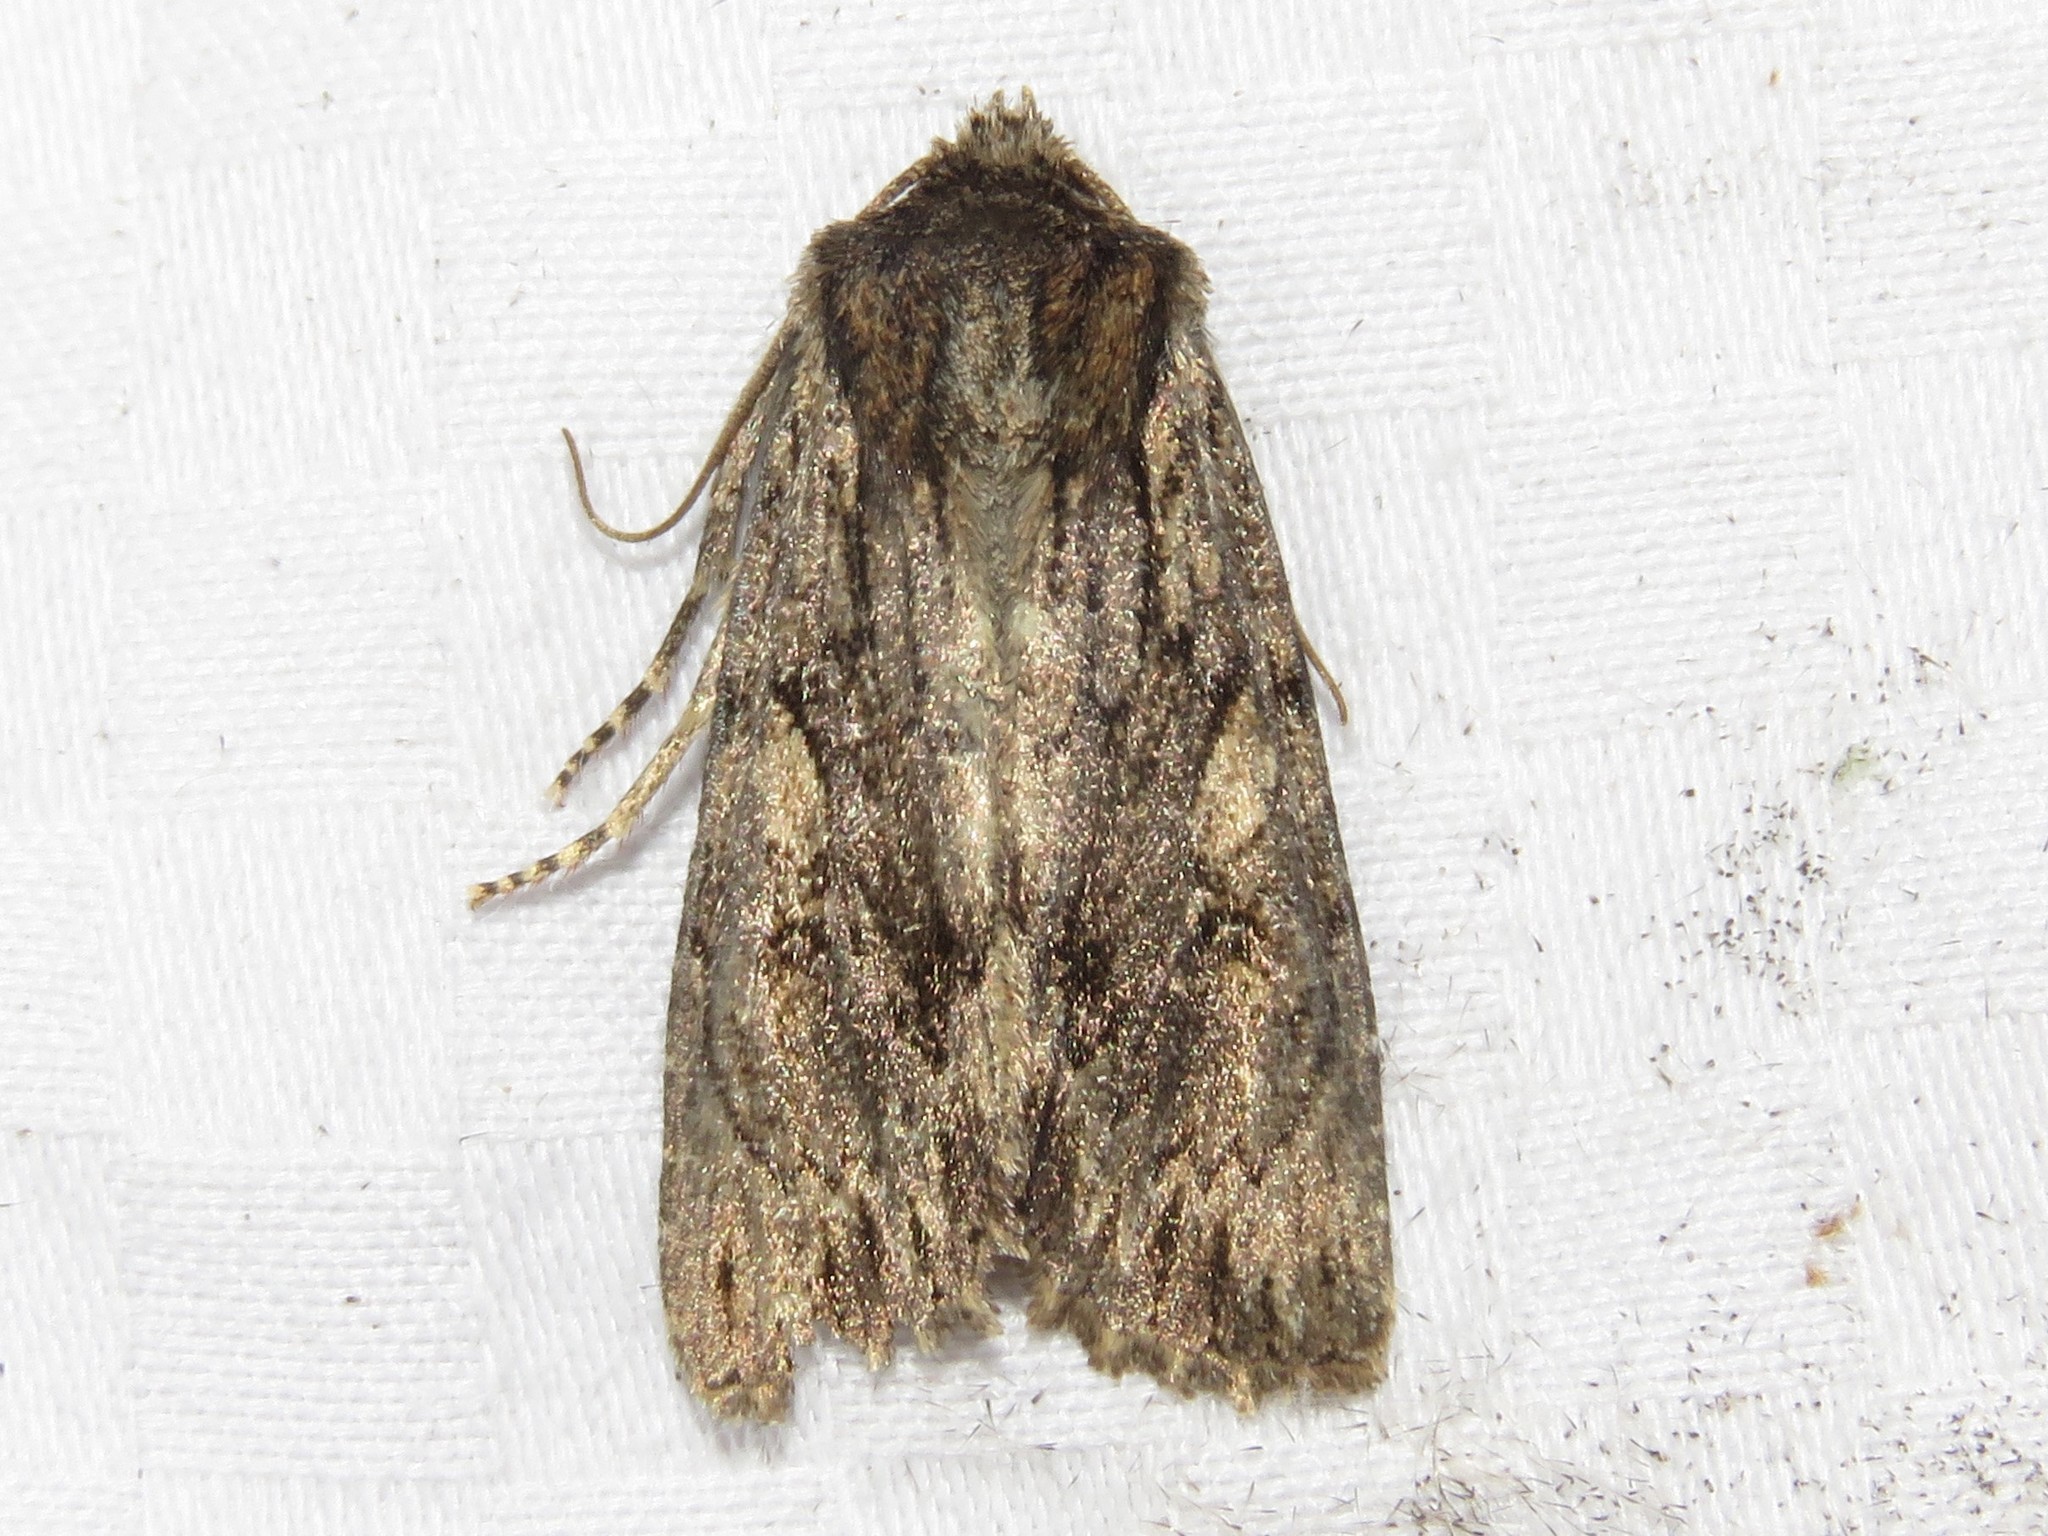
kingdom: Animalia
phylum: Arthropoda
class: Insecta
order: Lepidoptera
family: Noctuidae
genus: Achatia
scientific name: Achatia confusa
